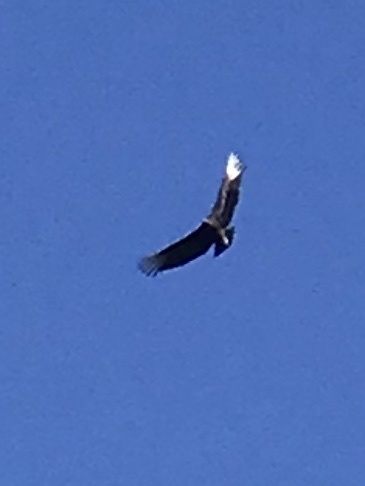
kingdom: Animalia
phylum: Chordata
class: Aves
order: Accipitriformes
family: Cathartidae
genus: Coragyps
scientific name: Coragyps atratus
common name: Black vulture
